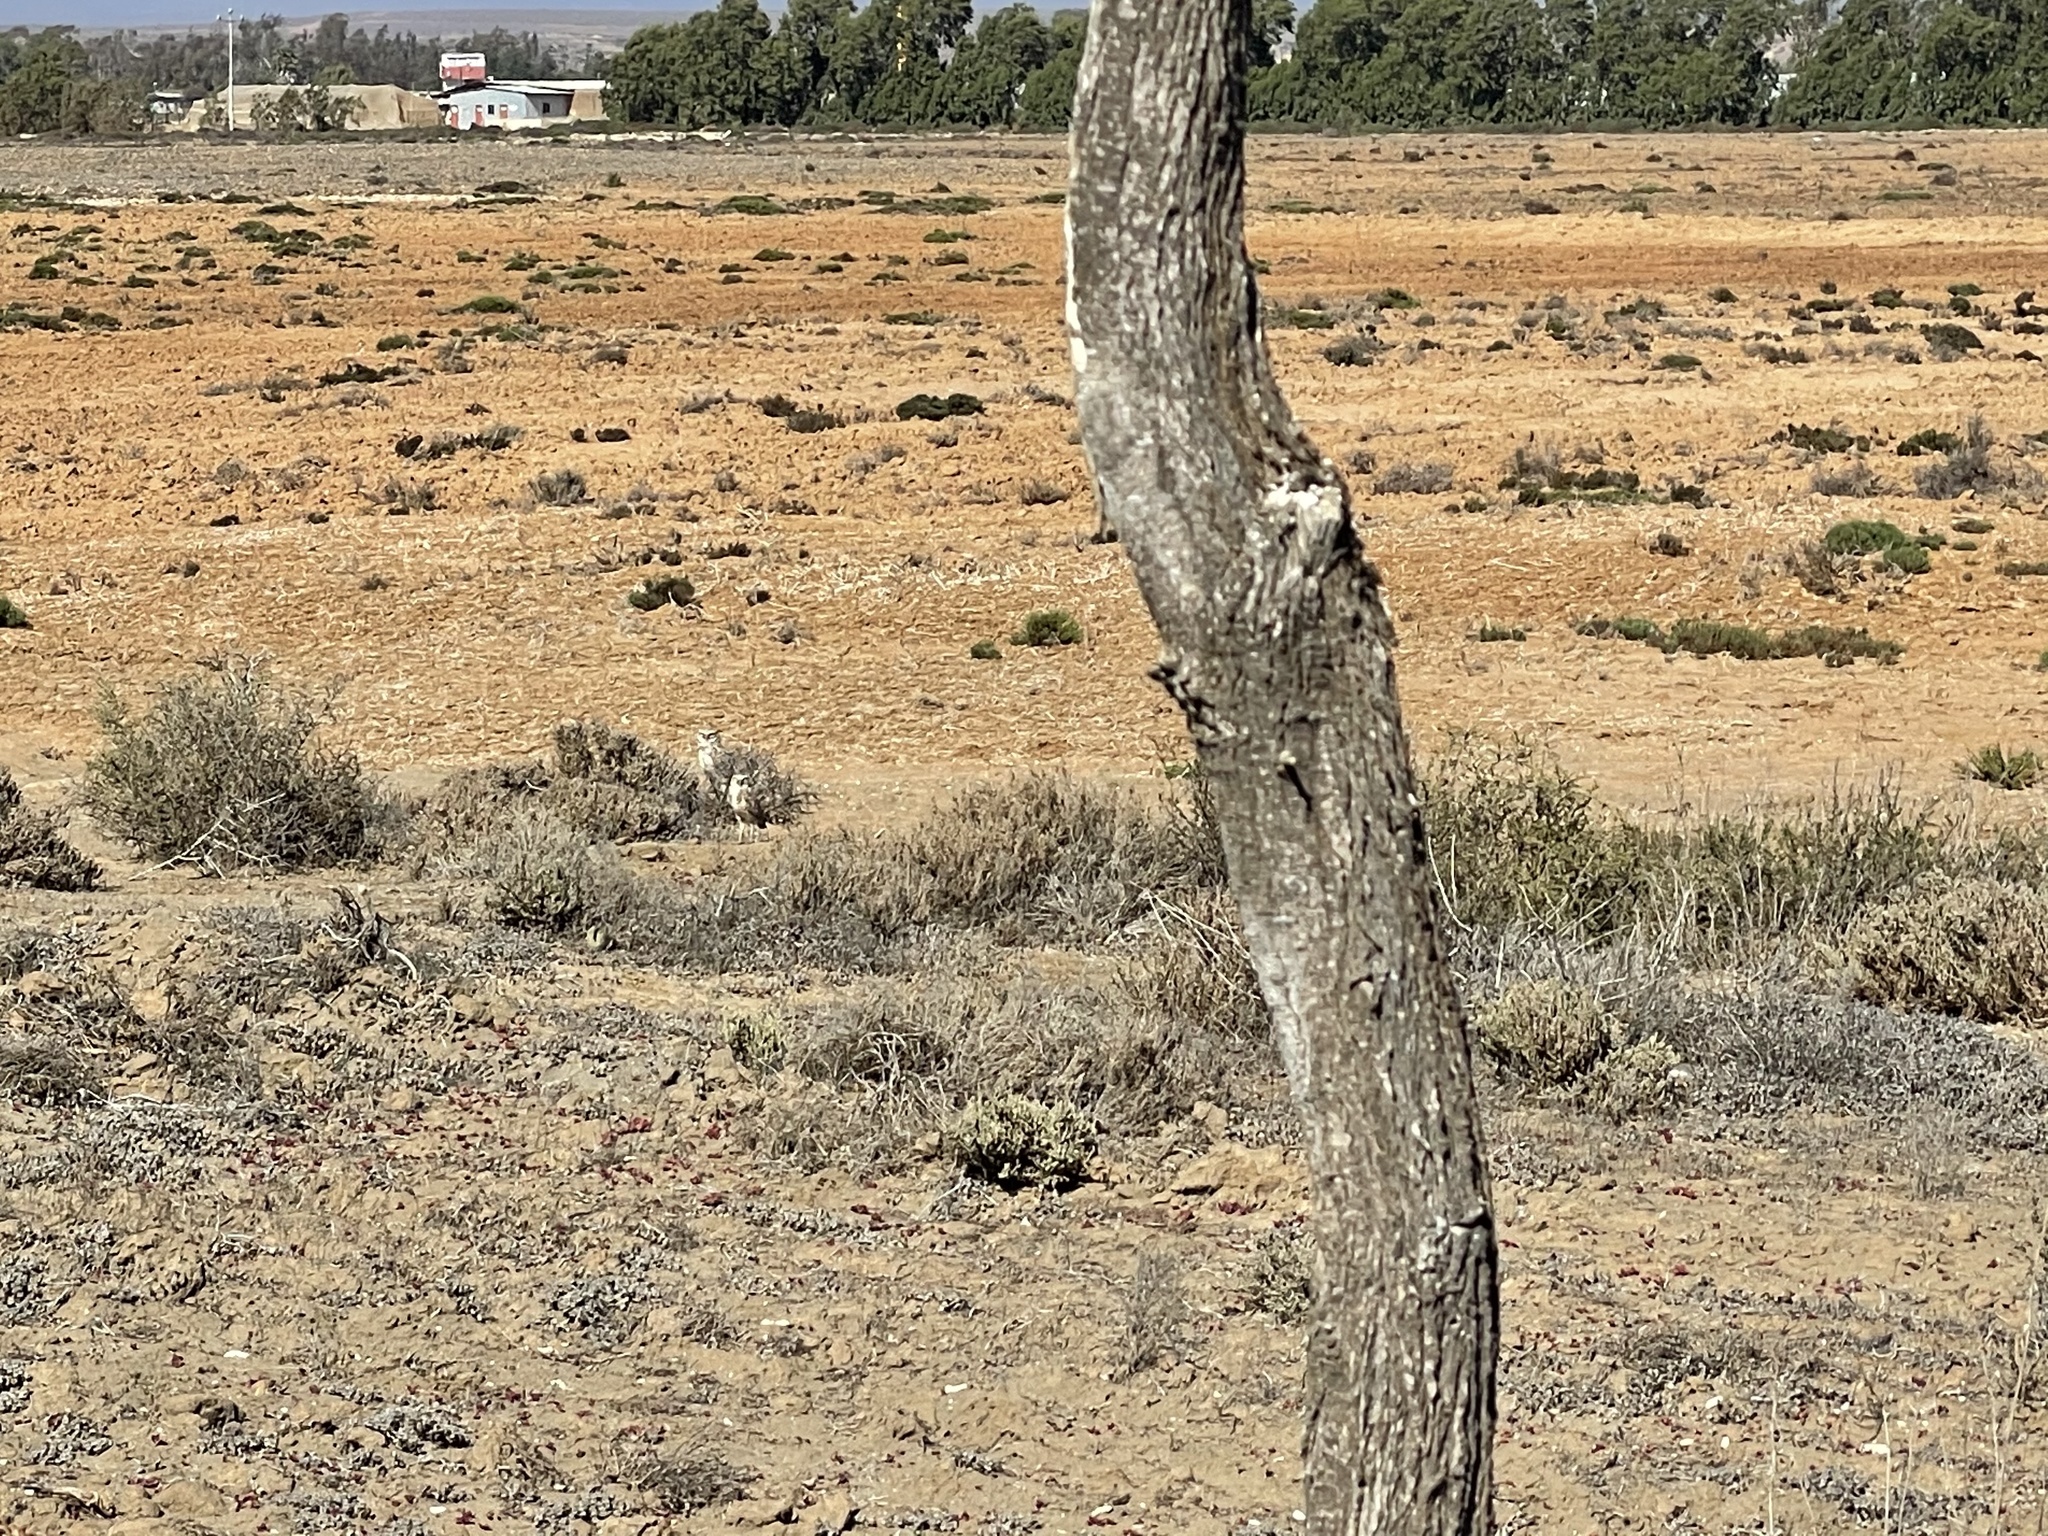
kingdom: Animalia
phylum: Chordata
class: Aves
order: Strigiformes
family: Strigidae
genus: Athene
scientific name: Athene cunicularia
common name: Burrowing owl
